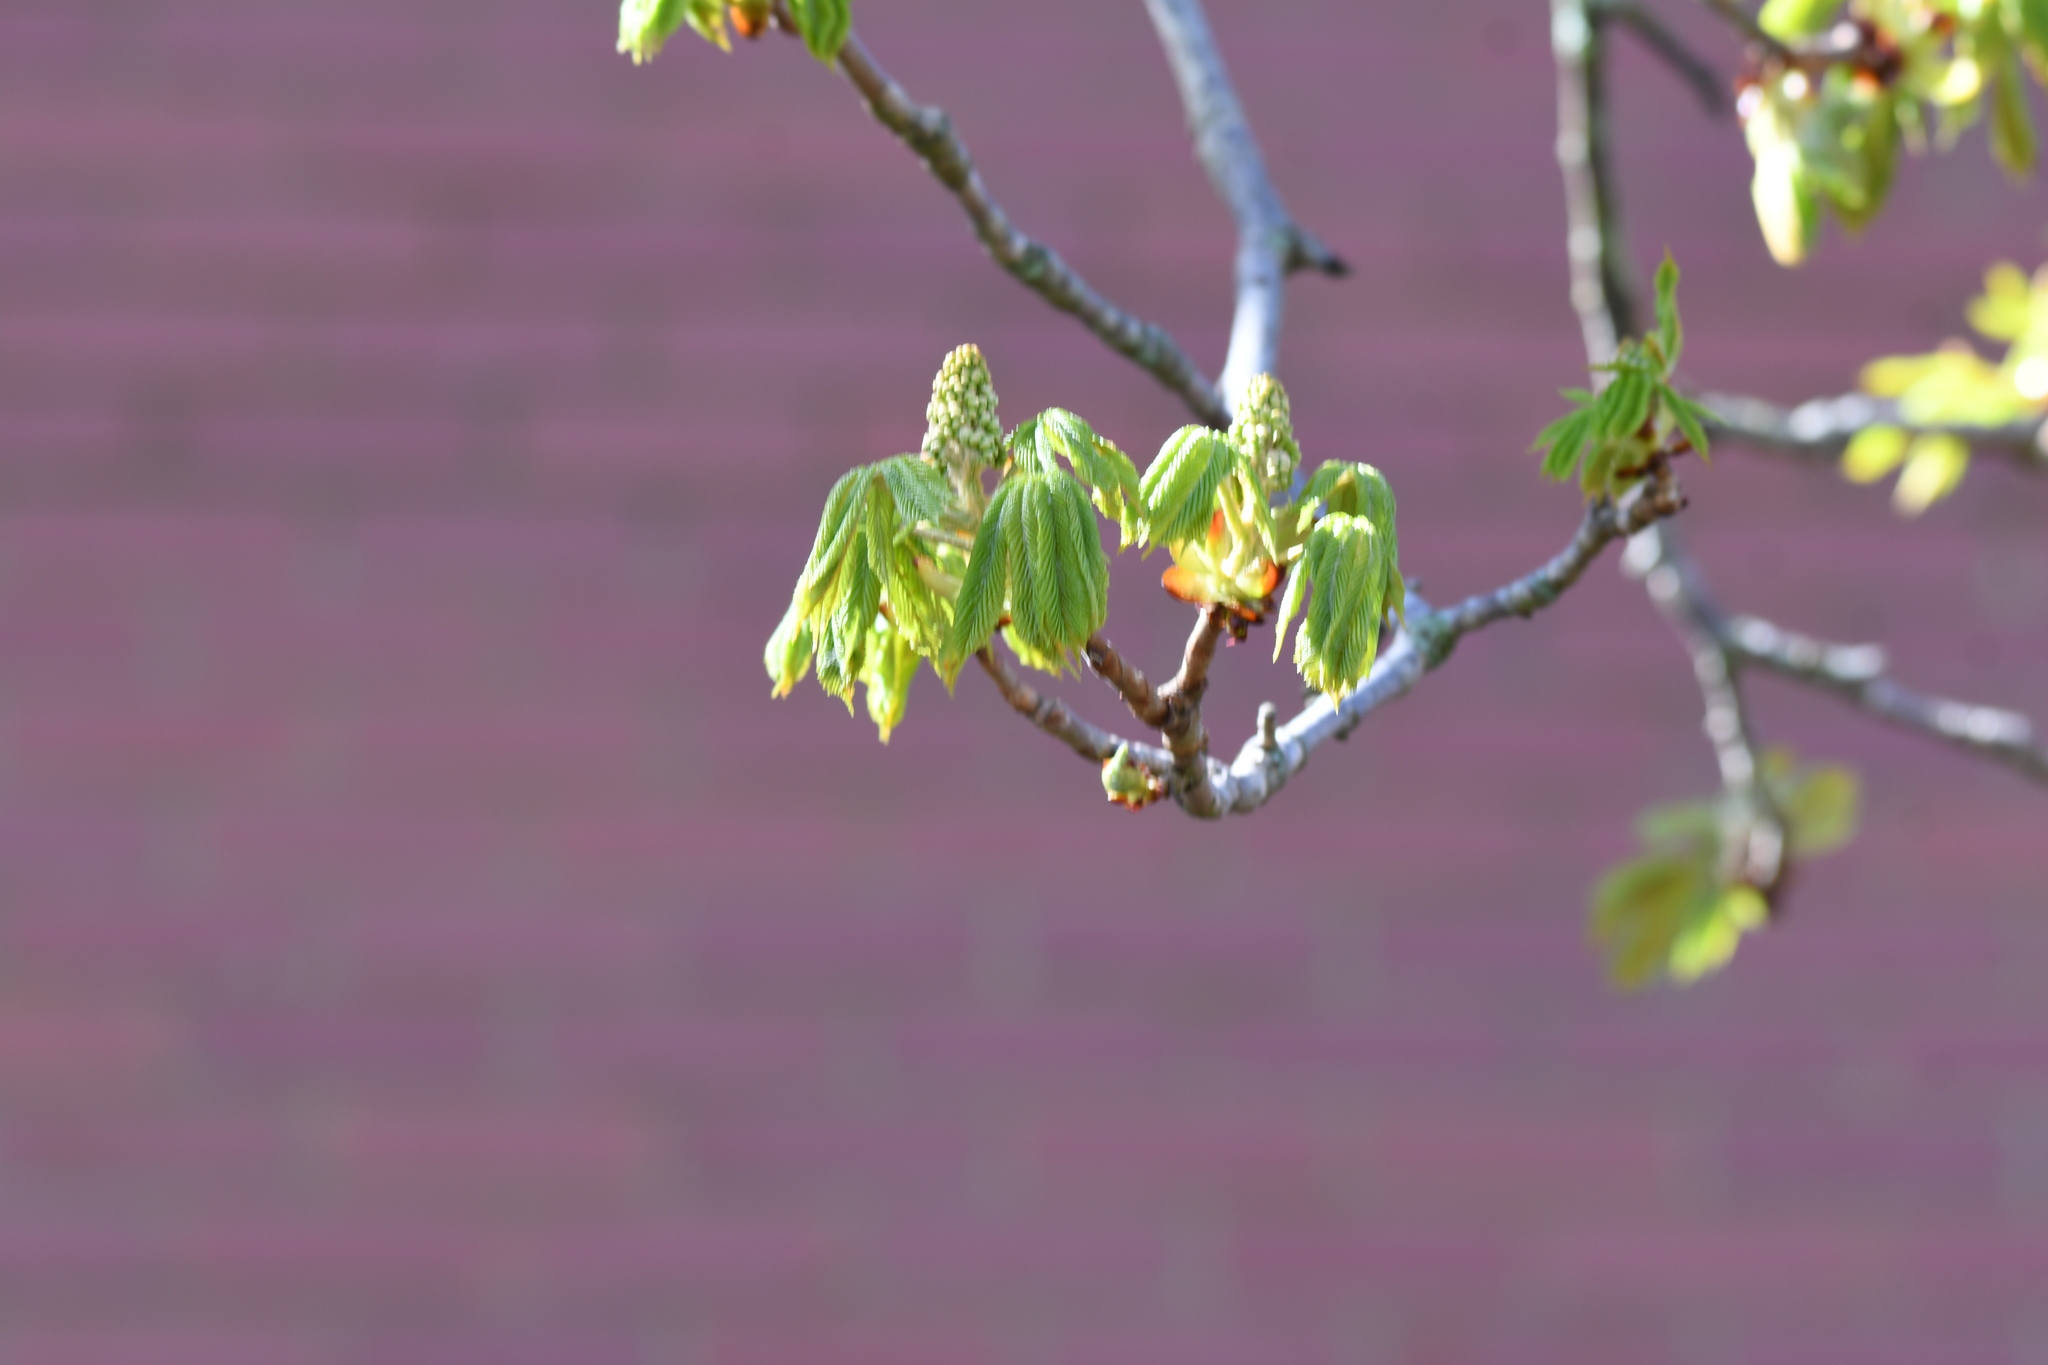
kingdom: Plantae
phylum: Tracheophyta
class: Magnoliopsida
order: Sapindales
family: Sapindaceae
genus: Aesculus
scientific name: Aesculus hippocastanum
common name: Horse-chestnut
